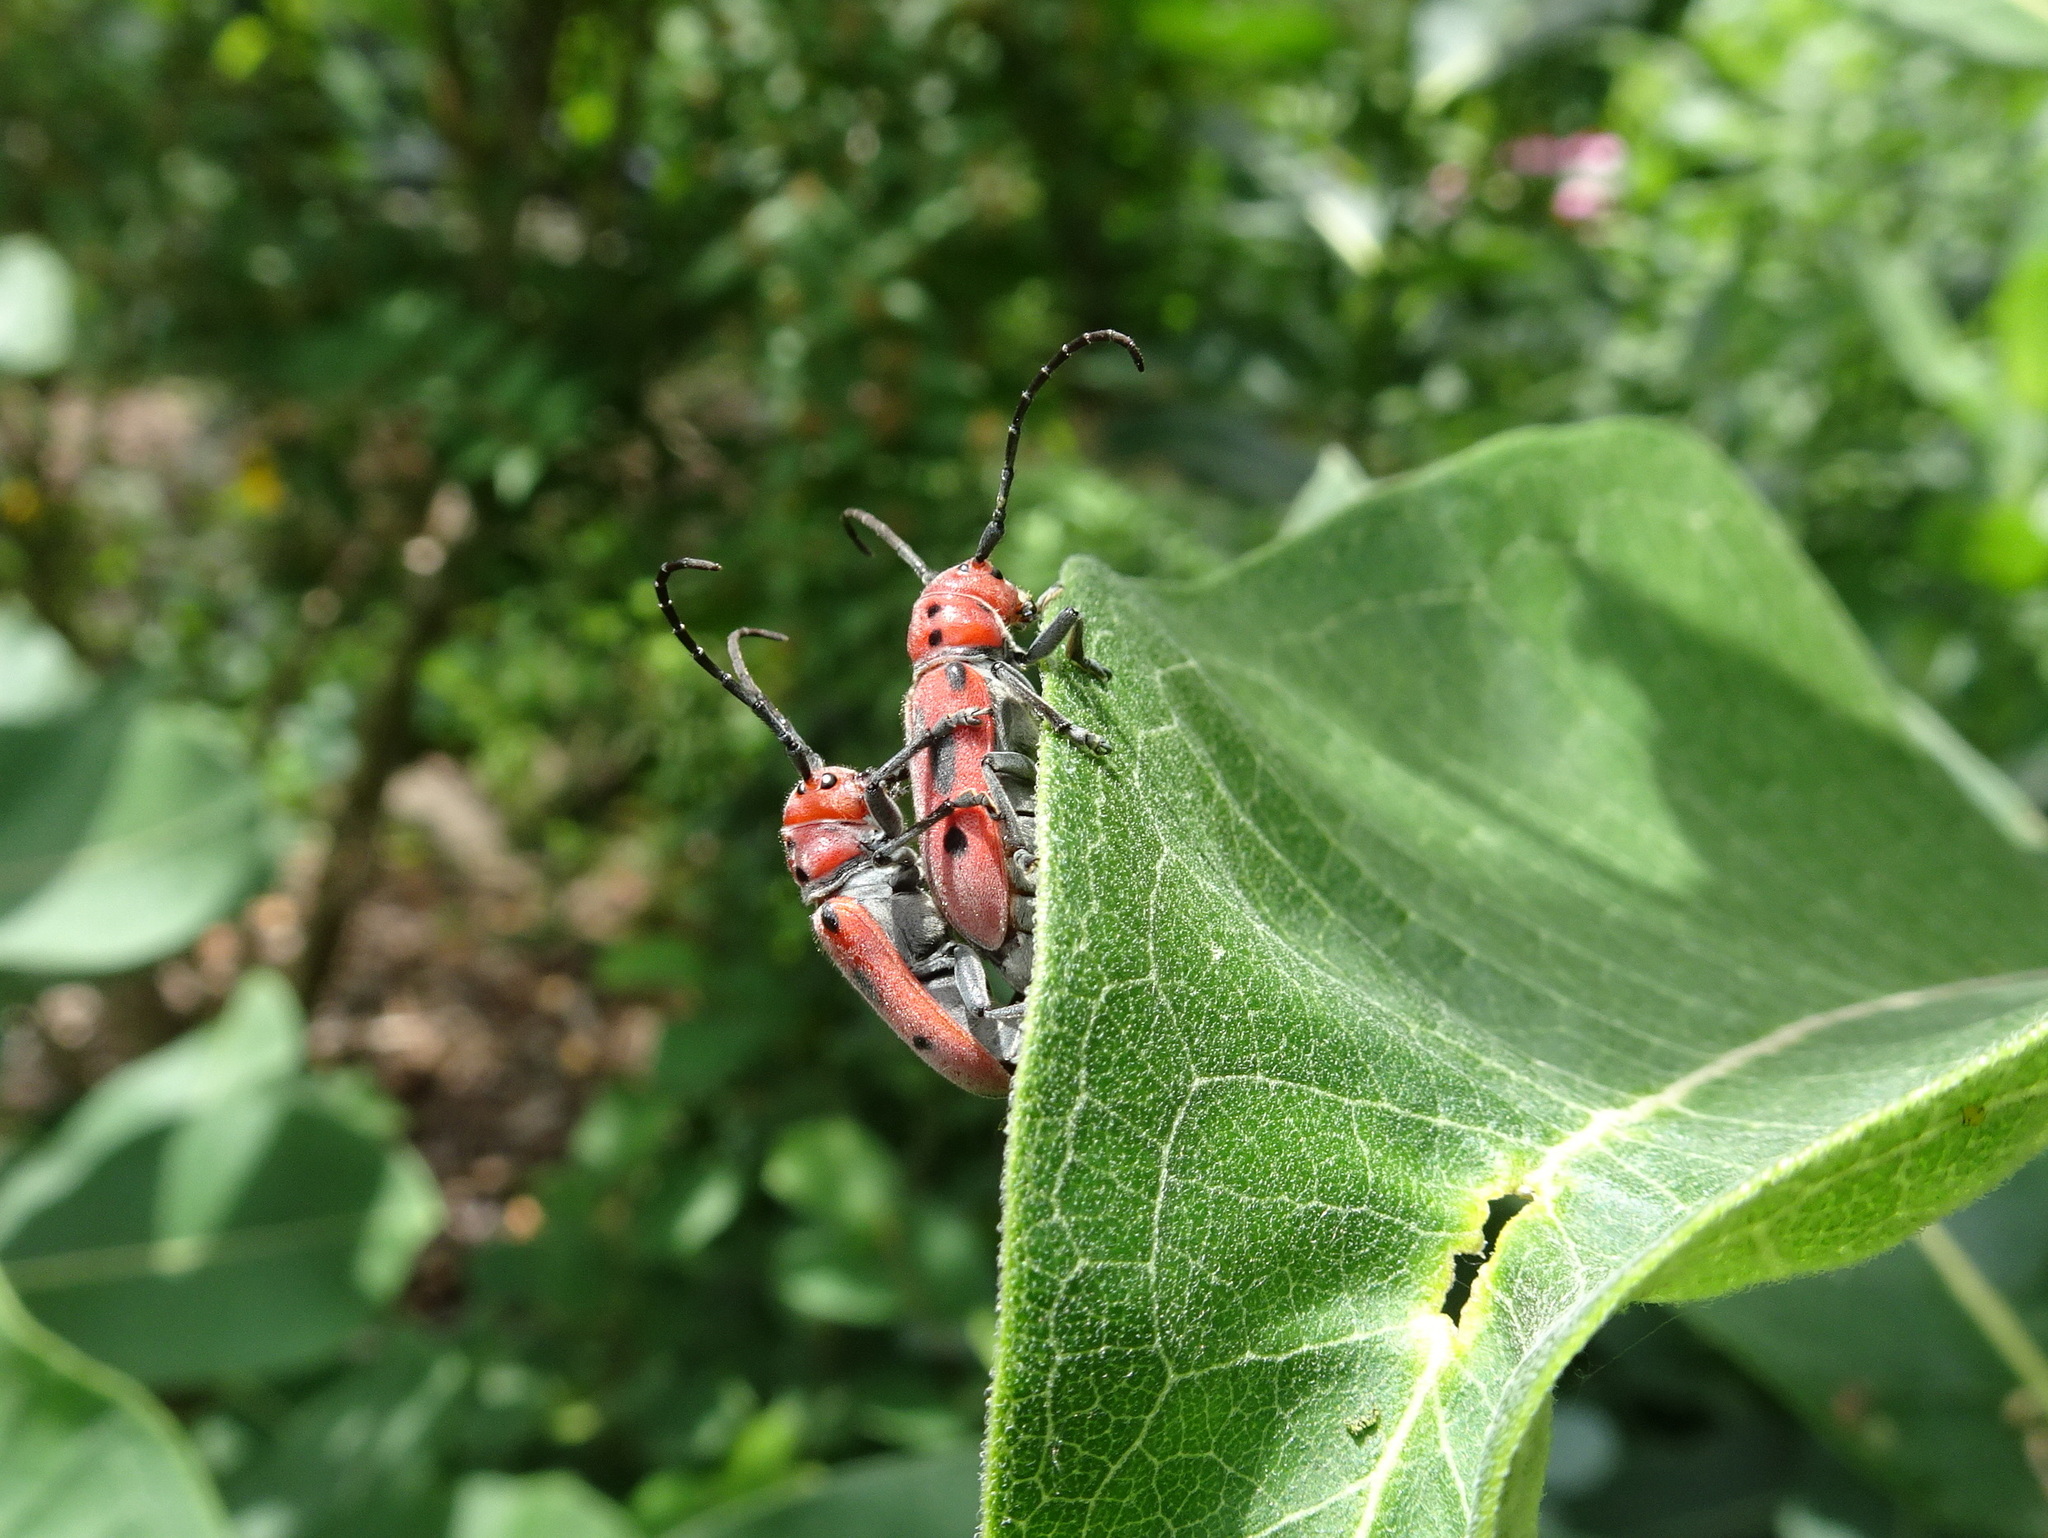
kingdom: Animalia
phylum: Arthropoda
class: Insecta
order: Coleoptera
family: Cerambycidae
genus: Tetraopes
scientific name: Tetraopes tetrophthalmus
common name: Red milkweed beetle
